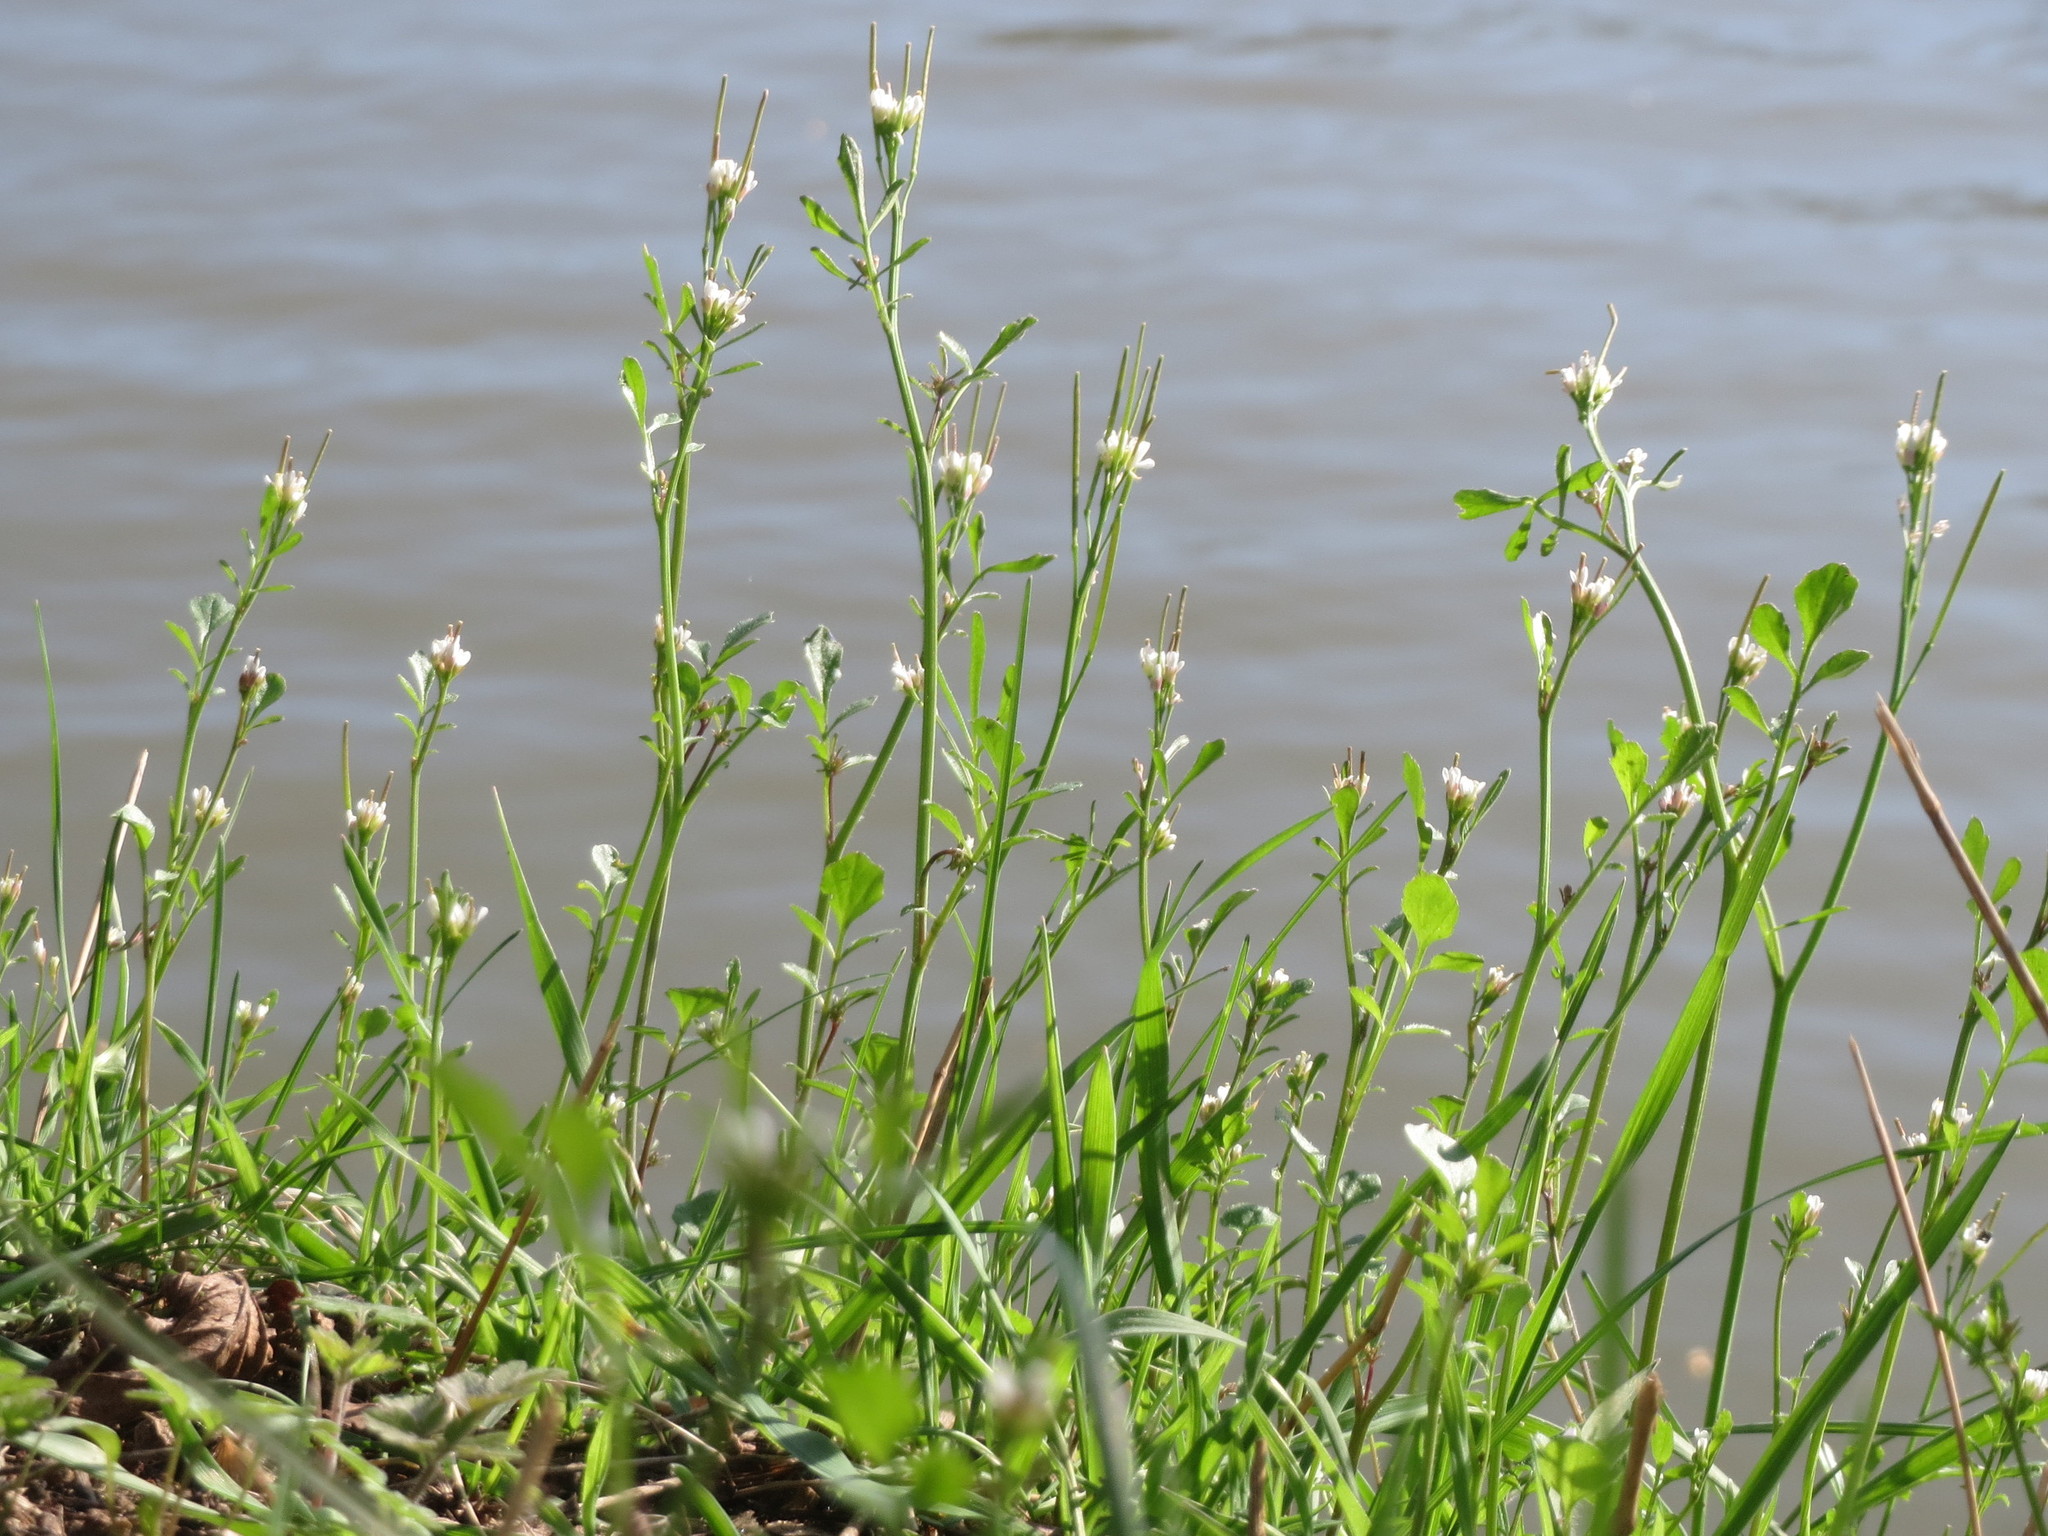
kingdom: Plantae
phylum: Tracheophyta
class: Magnoliopsida
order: Brassicales
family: Brassicaceae
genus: Cardamine
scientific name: Cardamine hirsuta
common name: Hairy bittercress
